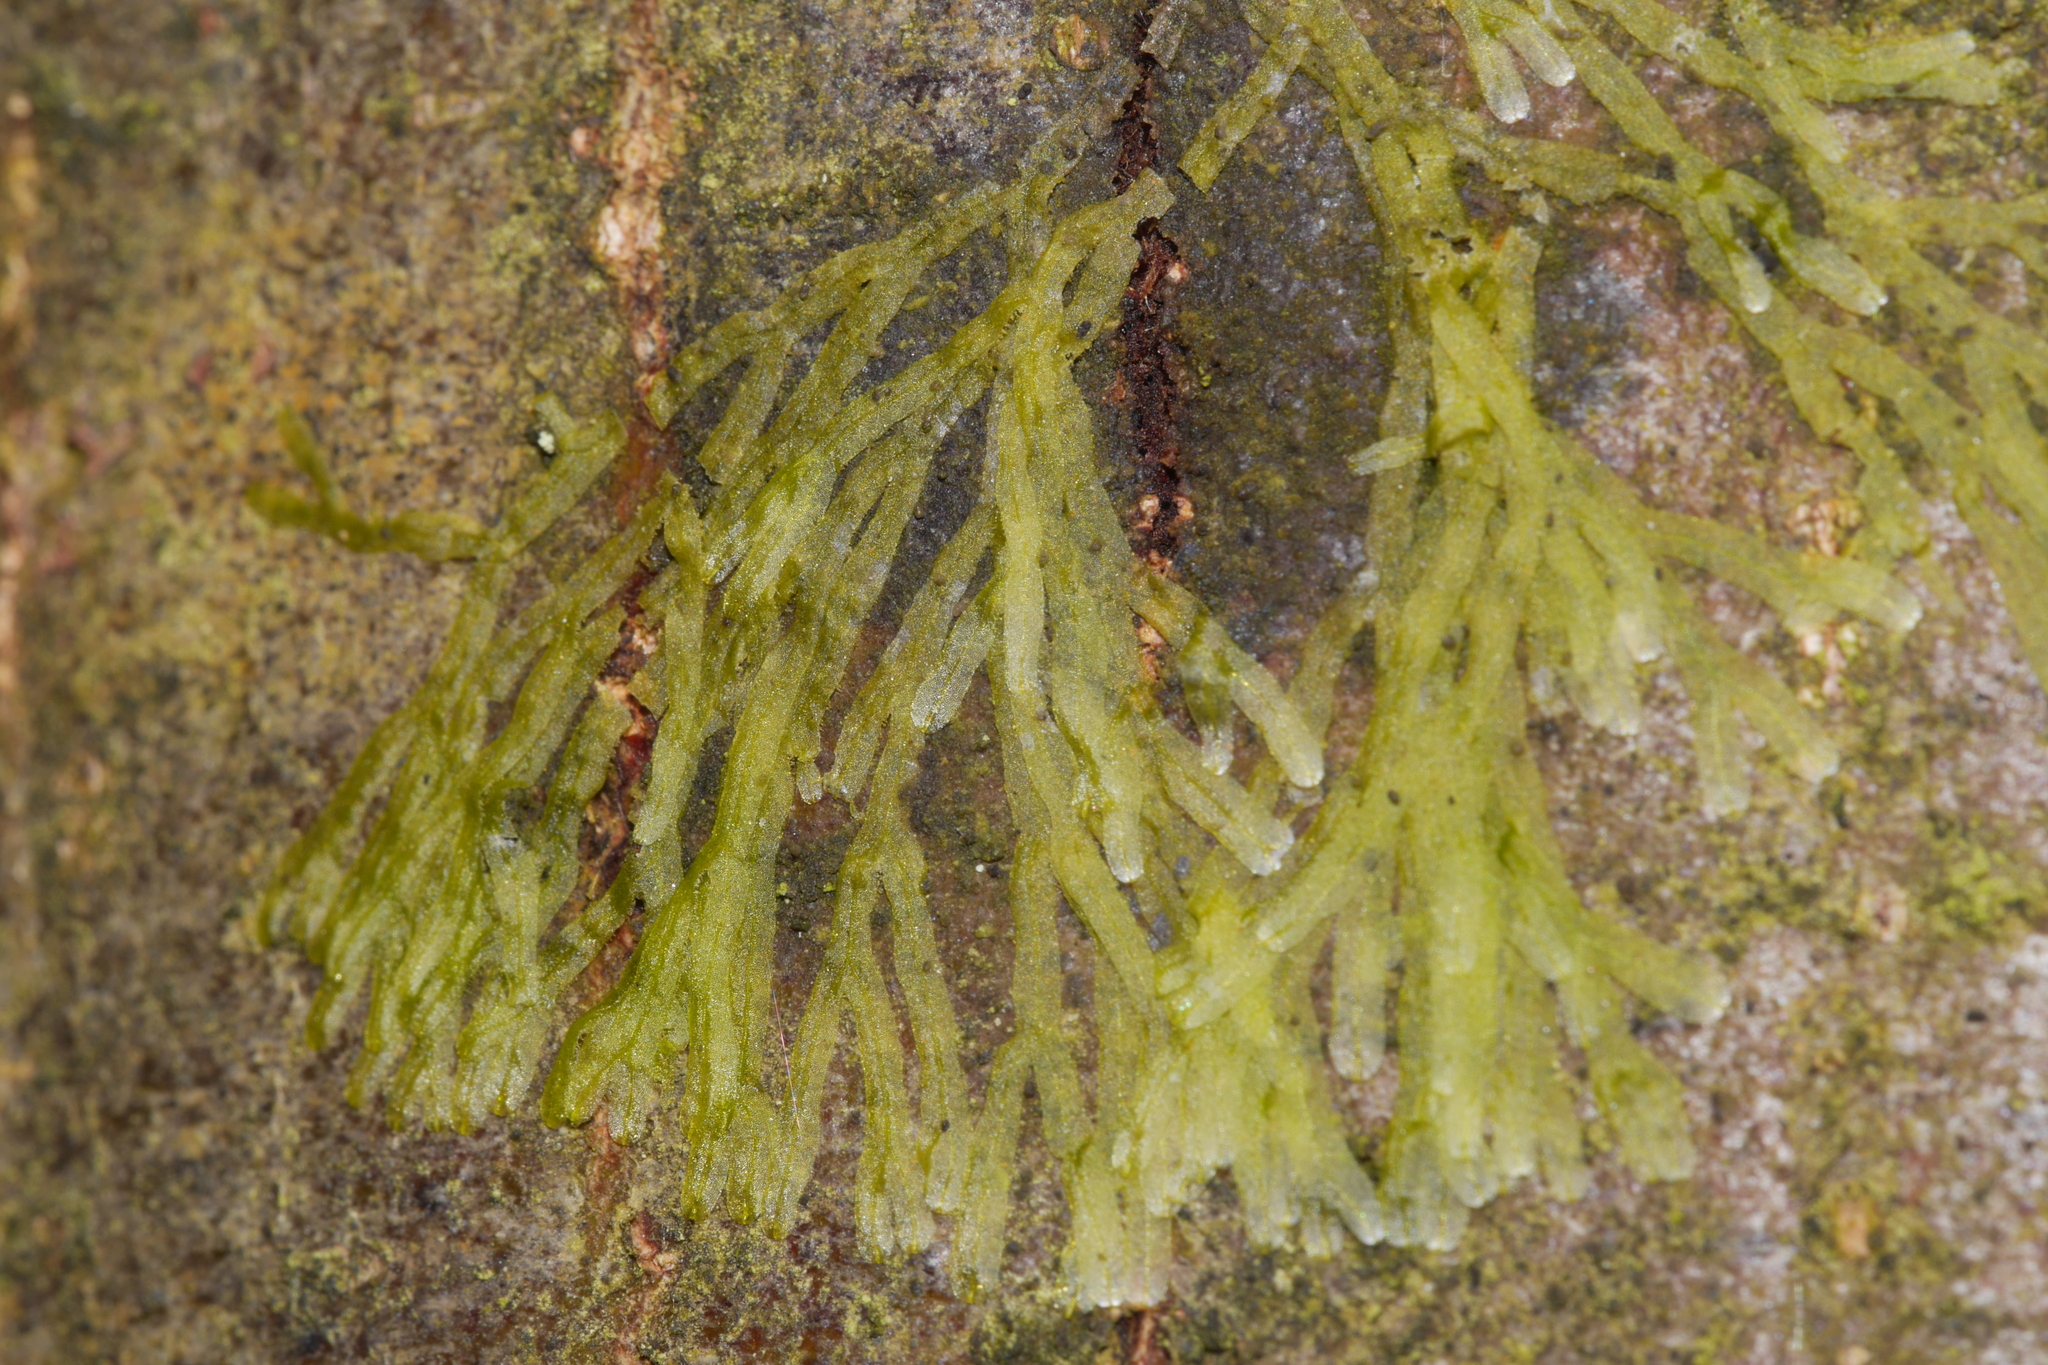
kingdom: Plantae
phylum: Marchantiophyta
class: Jungermanniopsida
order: Metzgeriales
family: Metzgeriaceae
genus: Metzgeria
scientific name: Metzgeria furcata
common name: Forked veilwort
